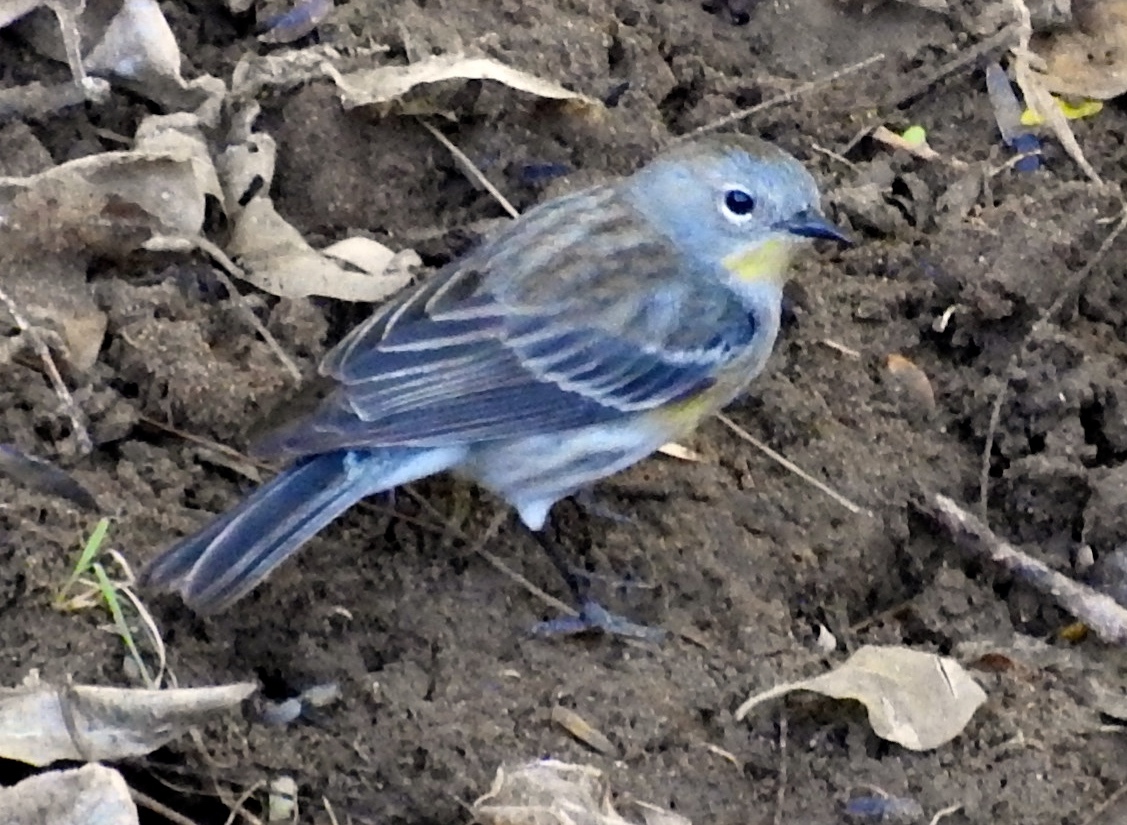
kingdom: Animalia
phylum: Chordata
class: Aves
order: Passeriformes
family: Parulidae
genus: Setophaga
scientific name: Setophaga auduboni
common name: Audubon's warbler
